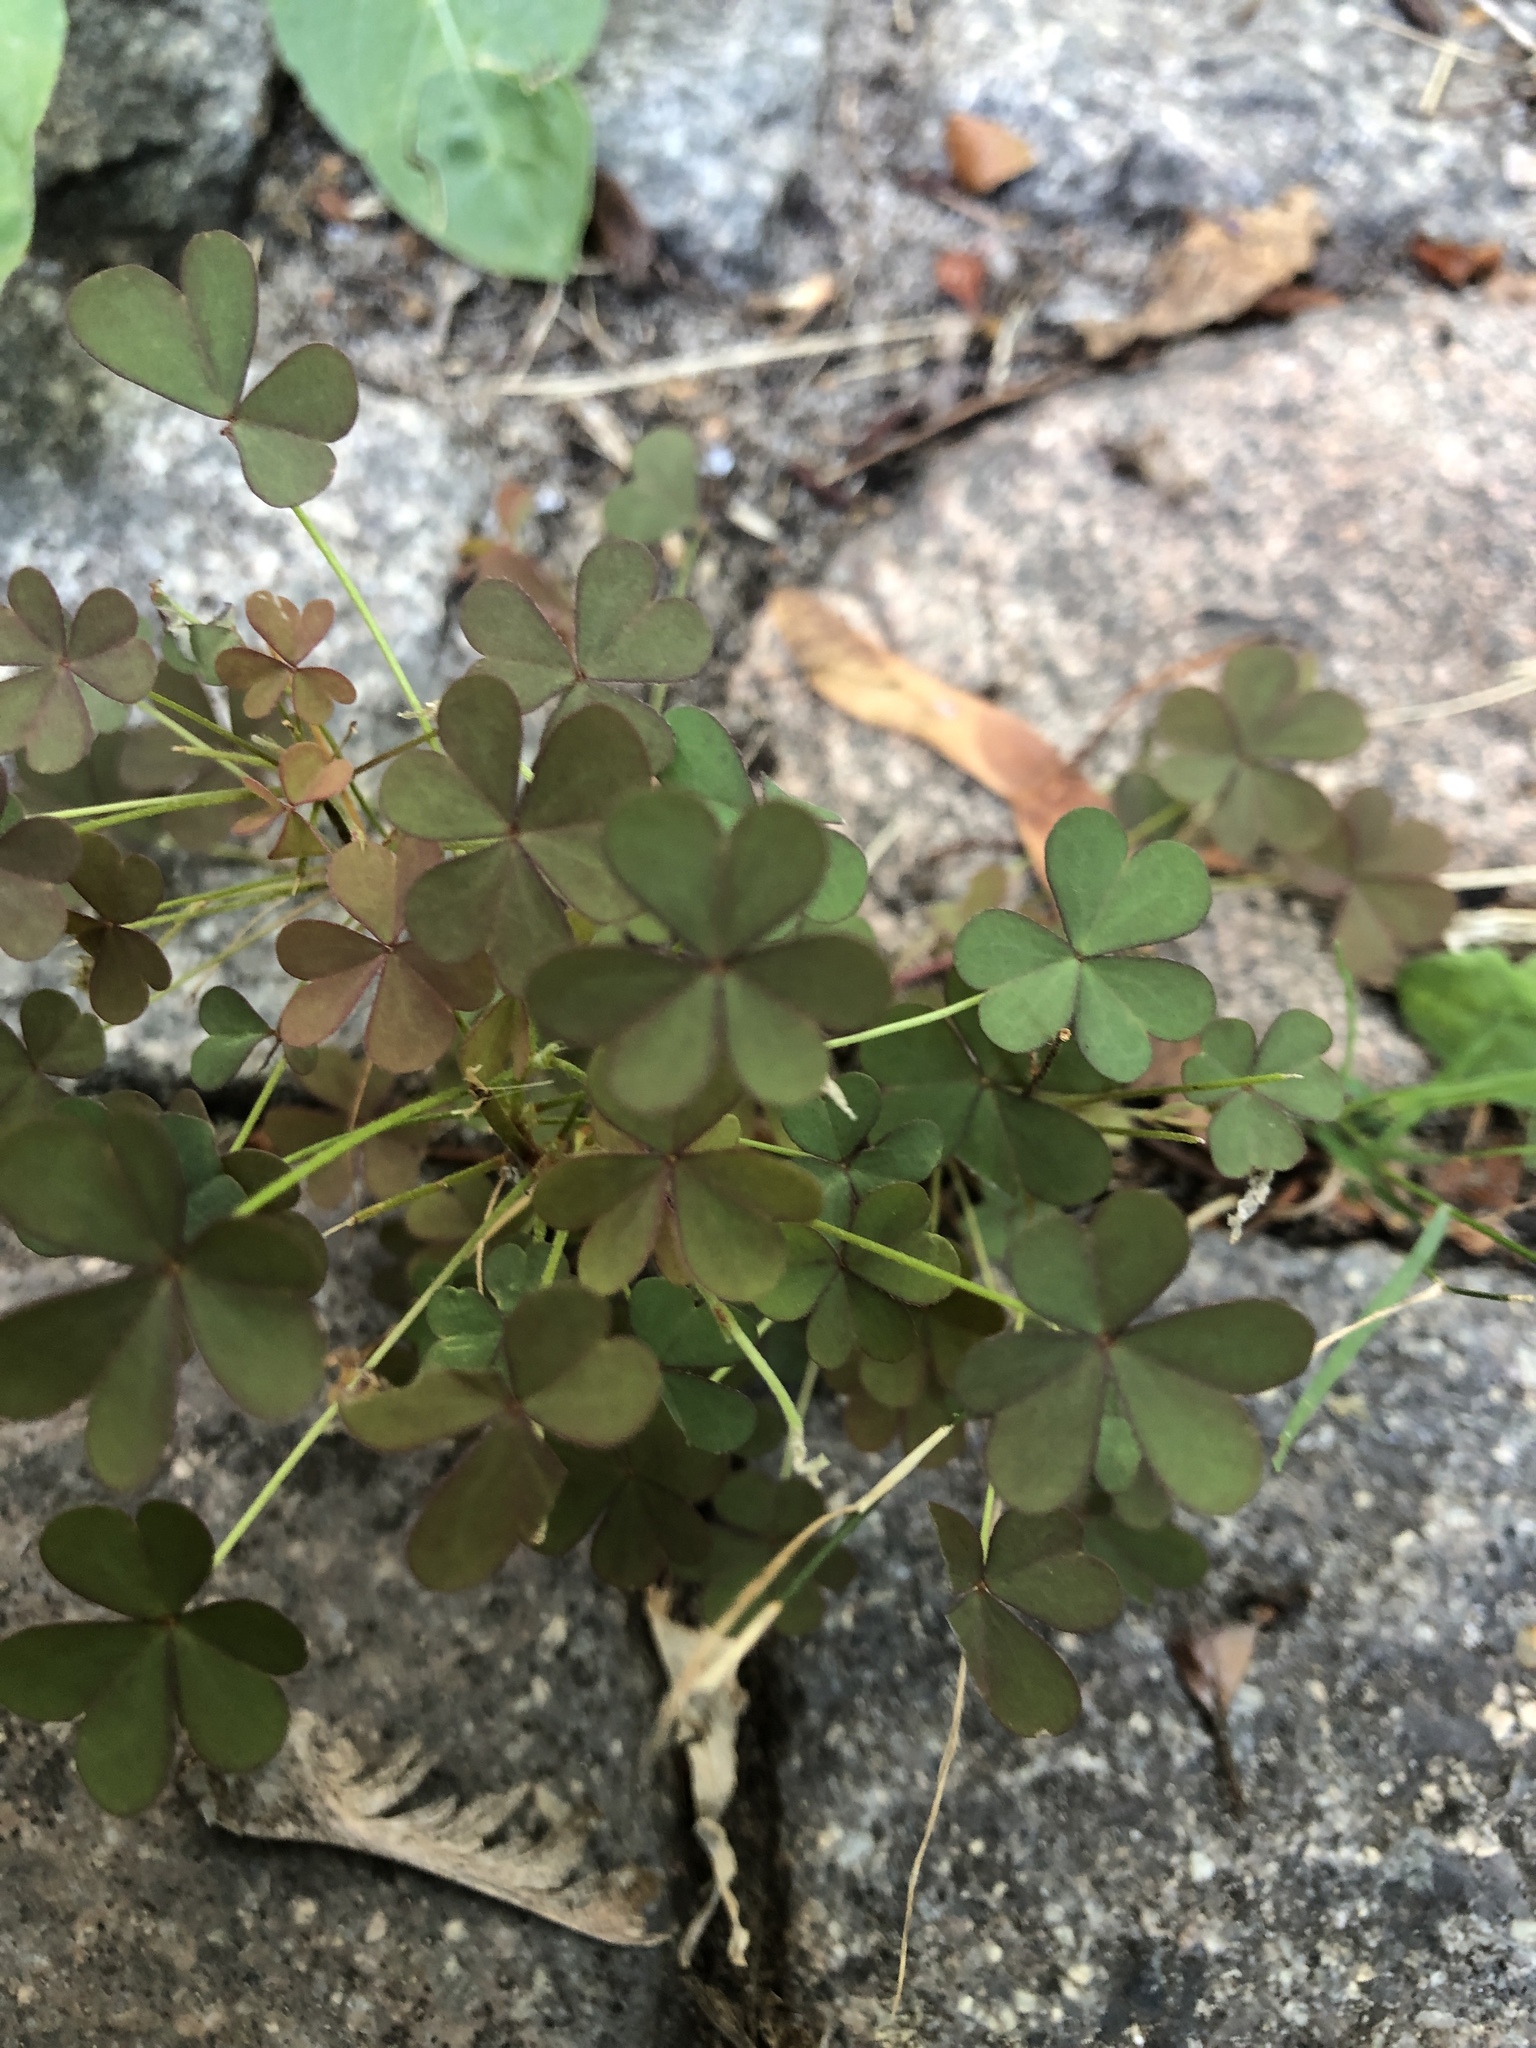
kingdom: Plantae
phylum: Tracheophyta
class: Magnoliopsida
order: Oxalidales
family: Oxalidaceae
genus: Oxalis
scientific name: Oxalis corniculata
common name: Procumbent yellow-sorrel
